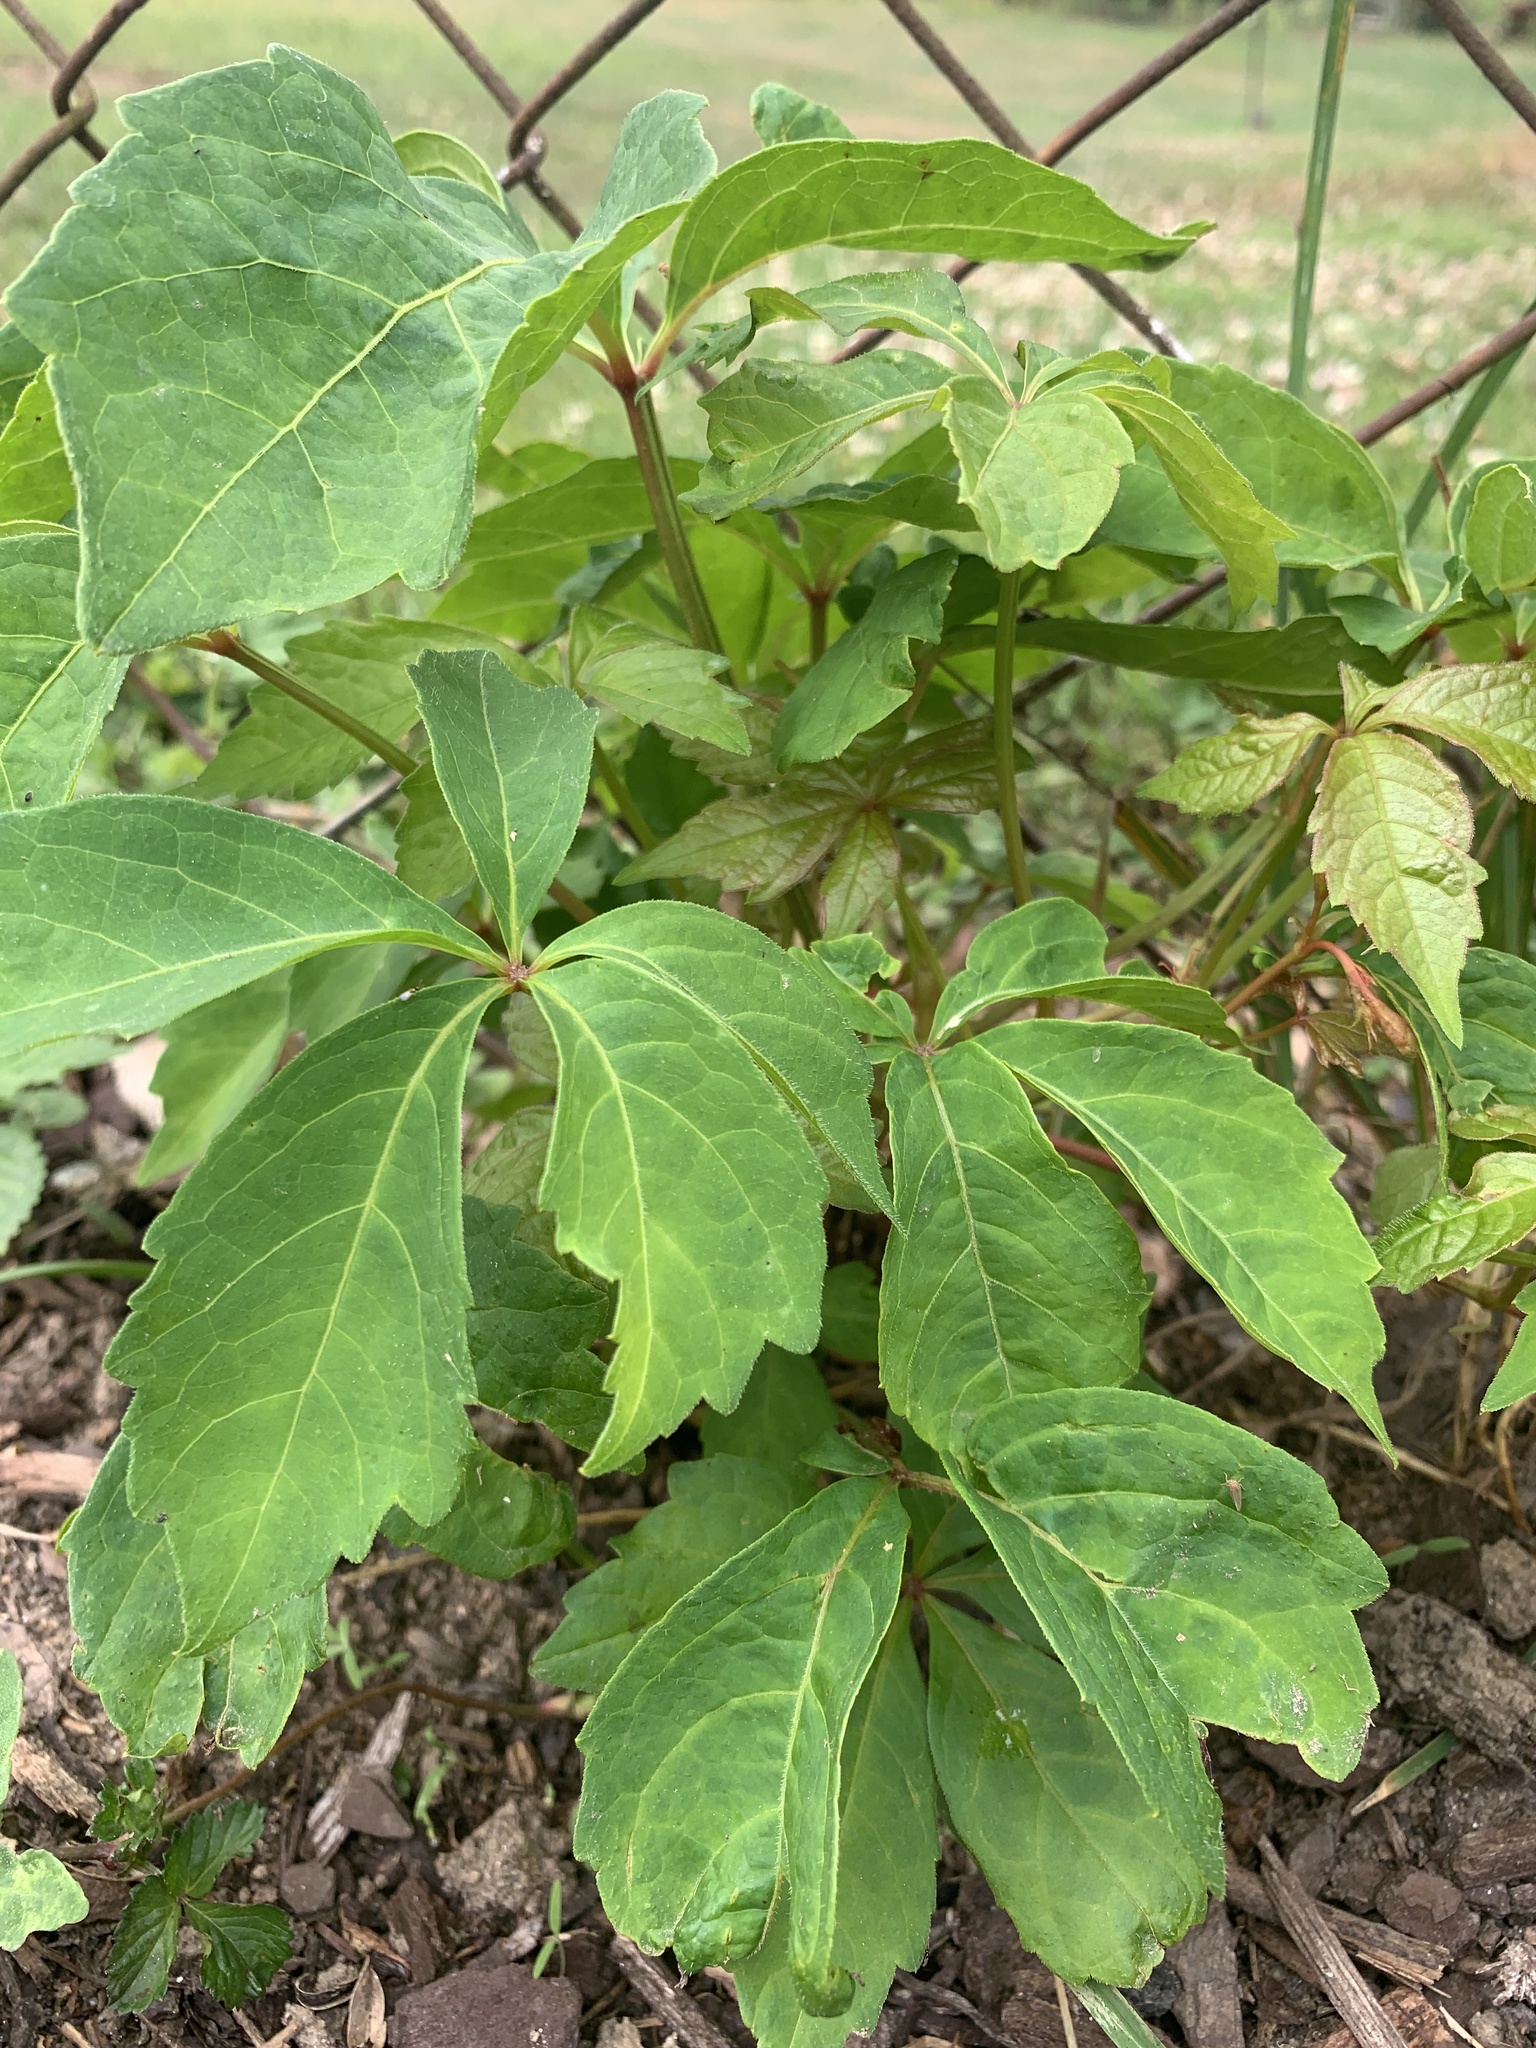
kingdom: Plantae
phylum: Tracheophyta
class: Magnoliopsida
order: Vitales
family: Vitaceae
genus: Parthenocissus
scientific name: Parthenocissus quinquefolia
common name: Virginia-creeper
